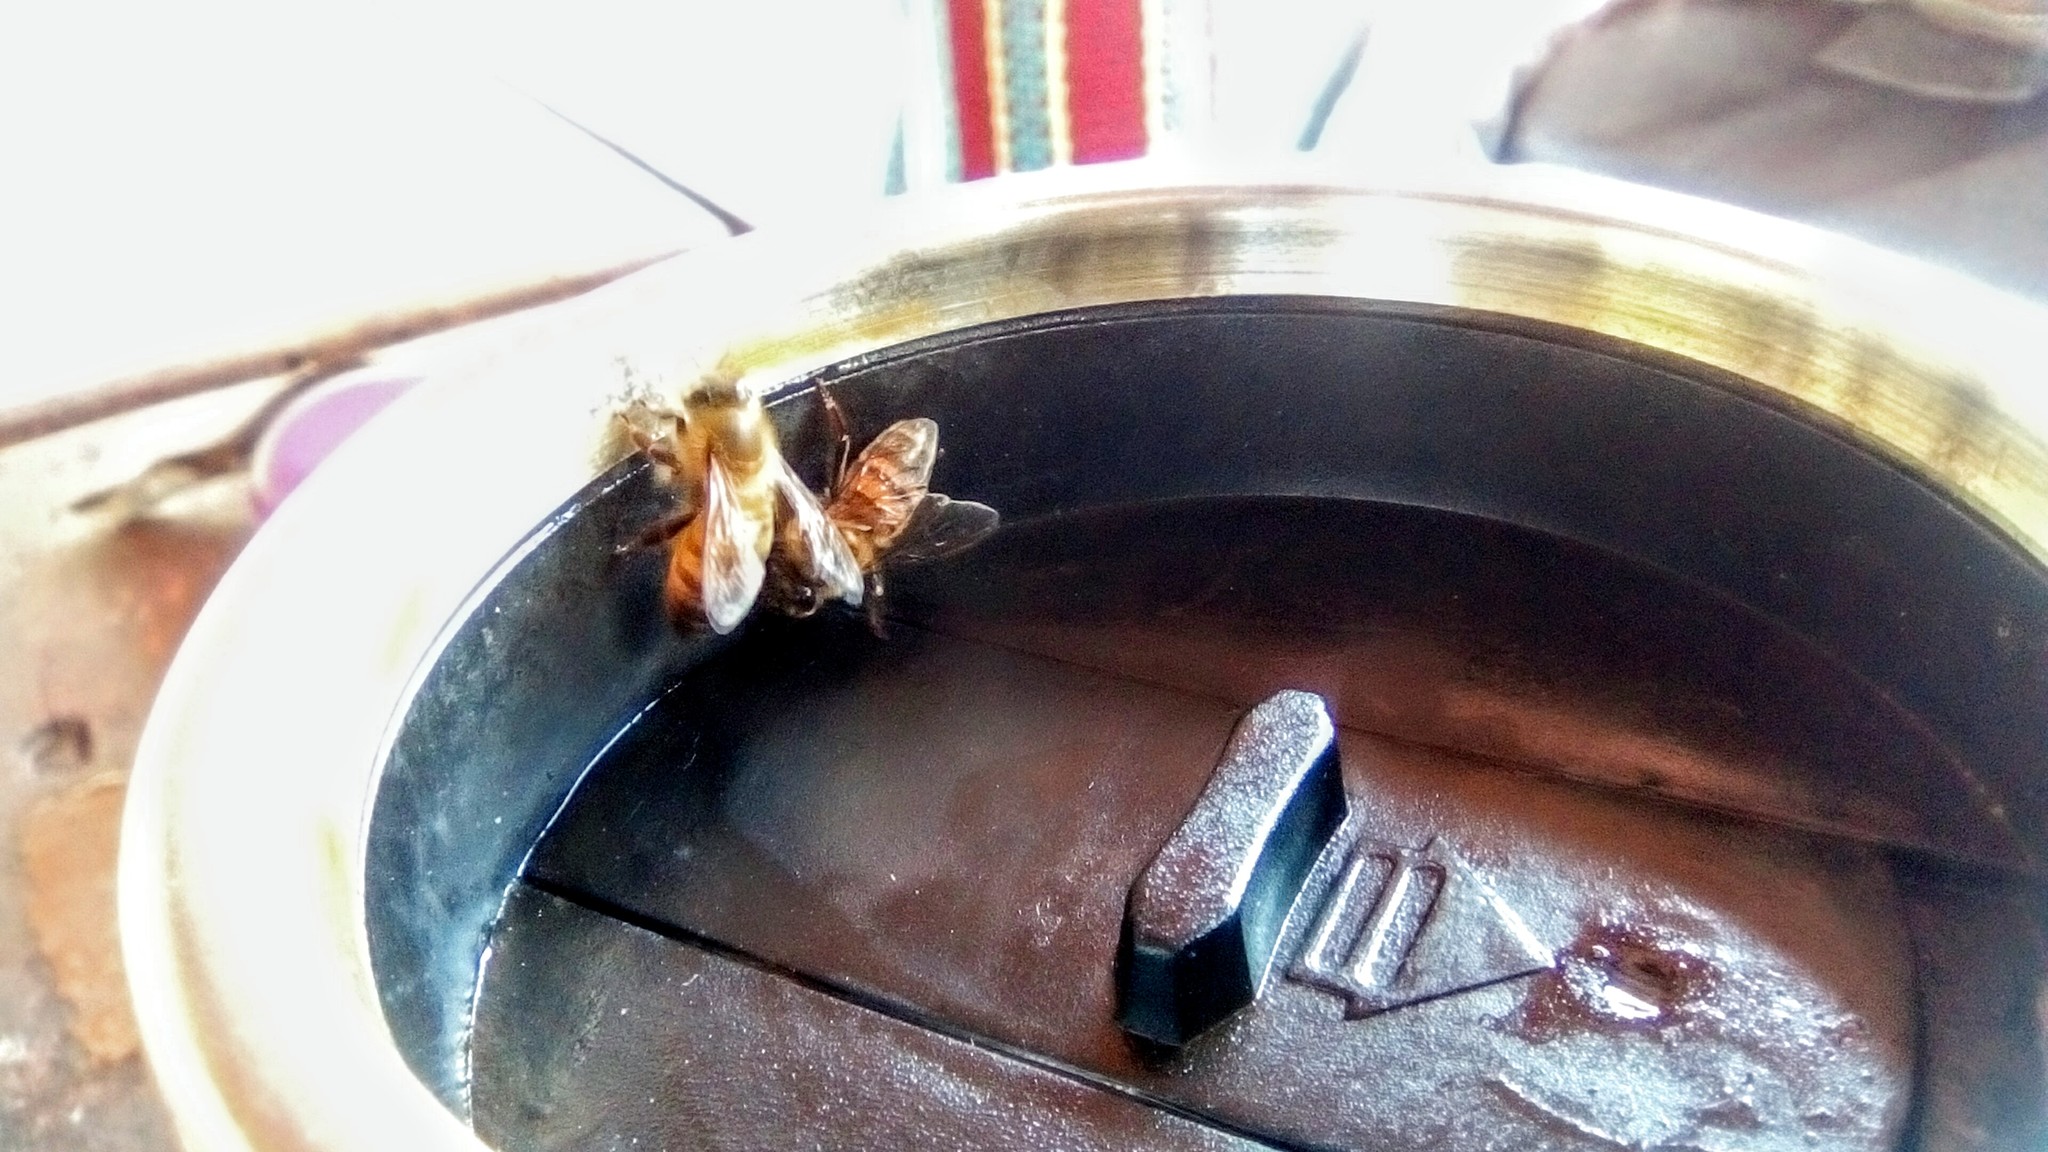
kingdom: Animalia
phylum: Arthropoda
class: Insecta
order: Hymenoptera
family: Apidae
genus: Apis
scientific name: Apis mellifera
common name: Honey bee
